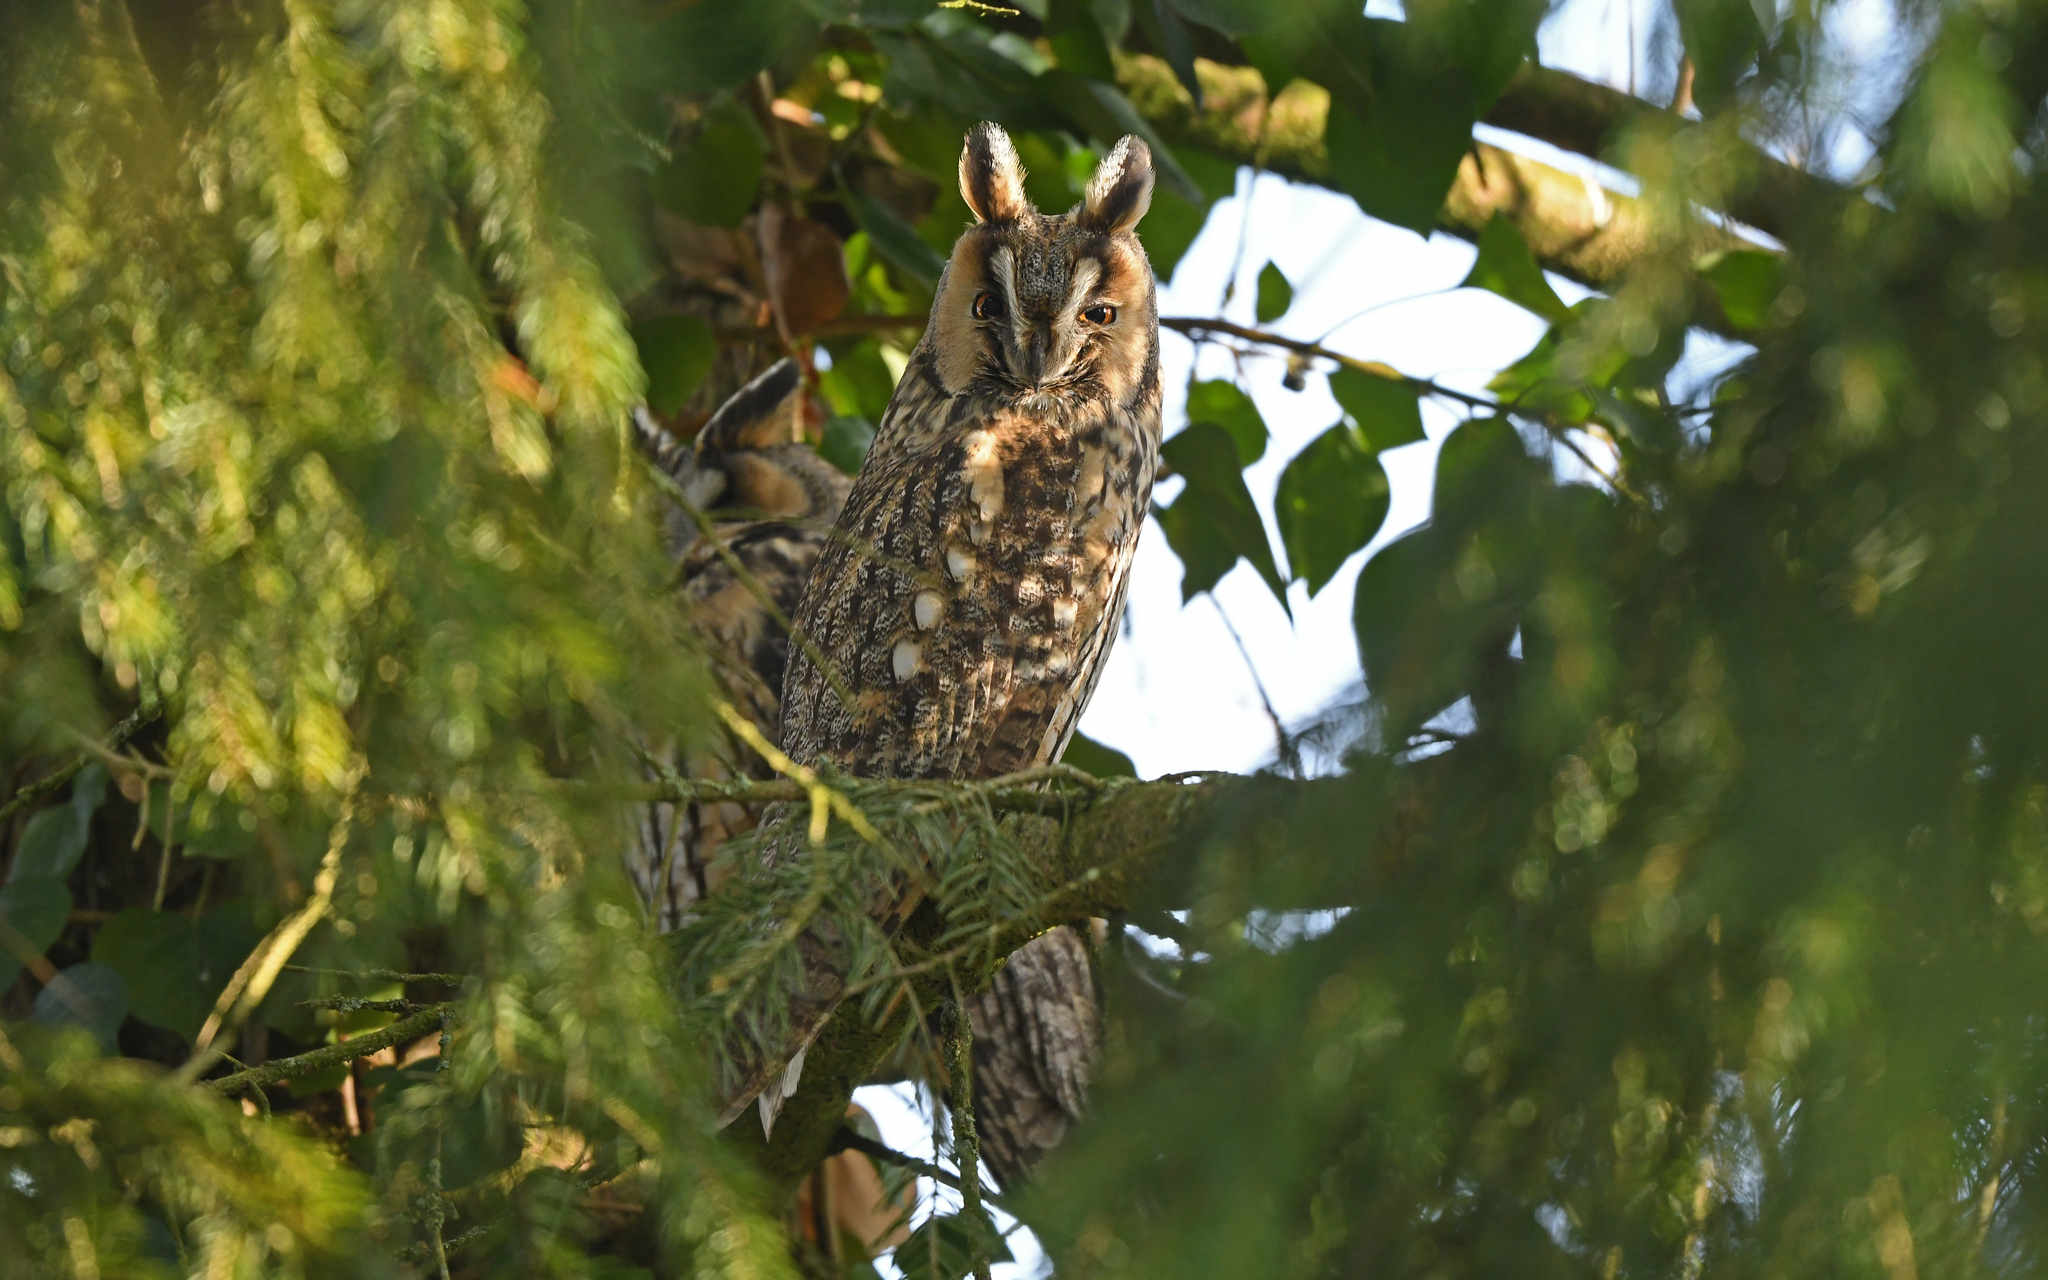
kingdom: Animalia
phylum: Chordata
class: Aves
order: Strigiformes
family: Strigidae
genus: Asio
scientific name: Asio otus
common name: Long-eared owl
